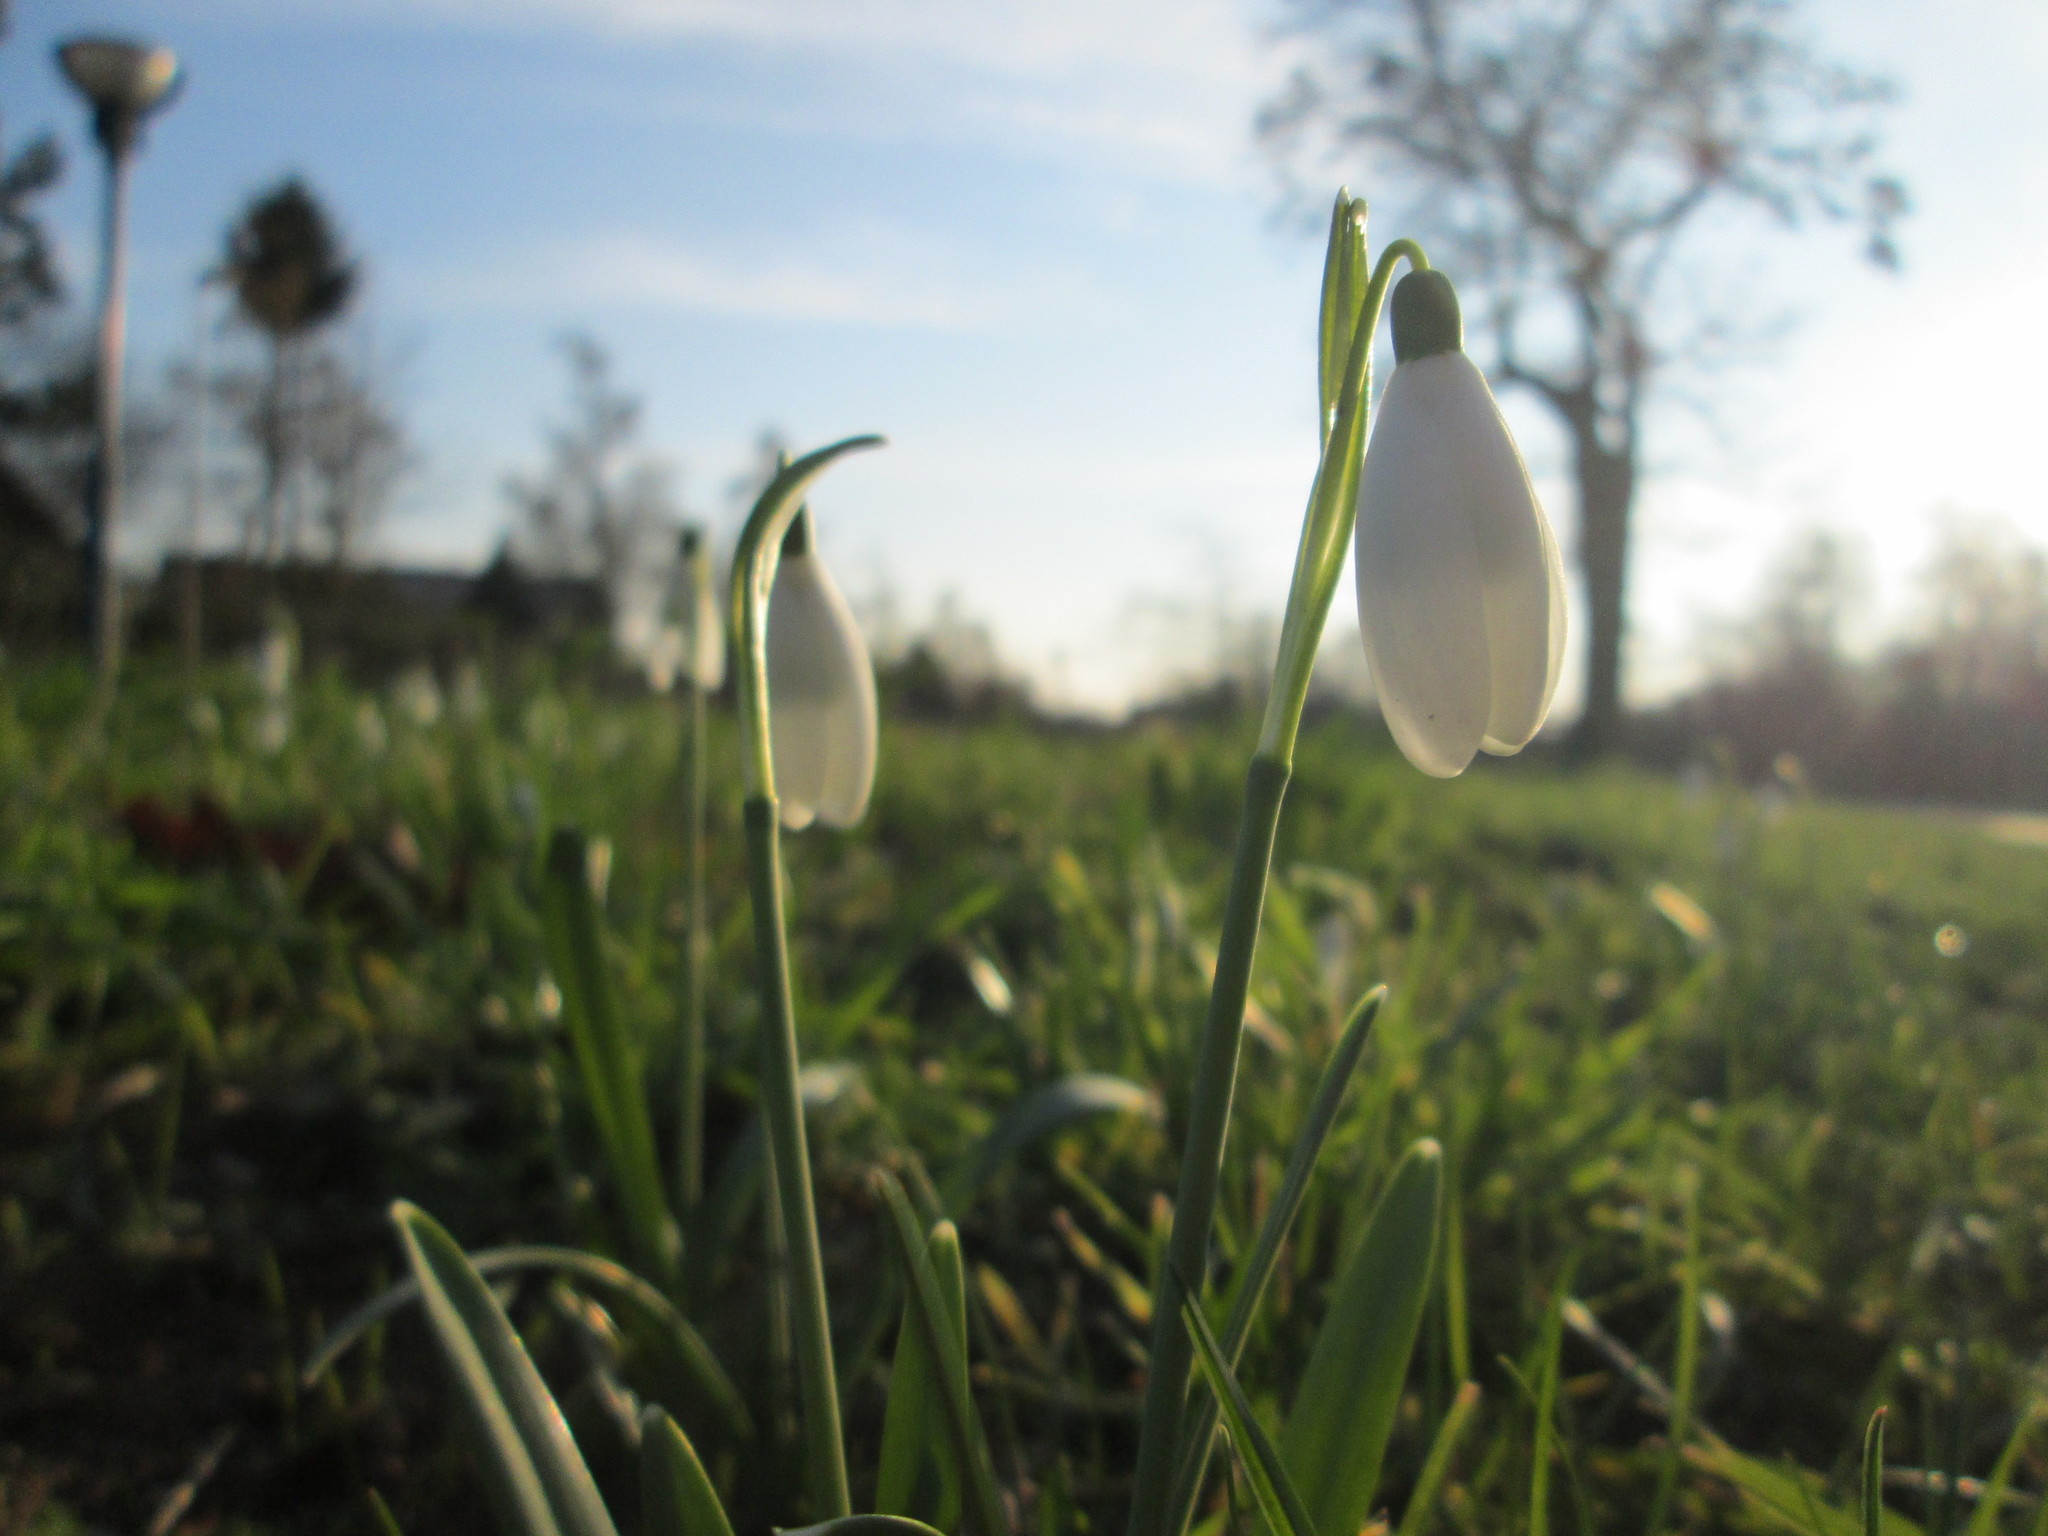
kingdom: Plantae
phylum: Tracheophyta
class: Liliopsida
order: Asparagales
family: Amaryllidaceae
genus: Galanthus
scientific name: Galanthus nivalis
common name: Snowdrop
